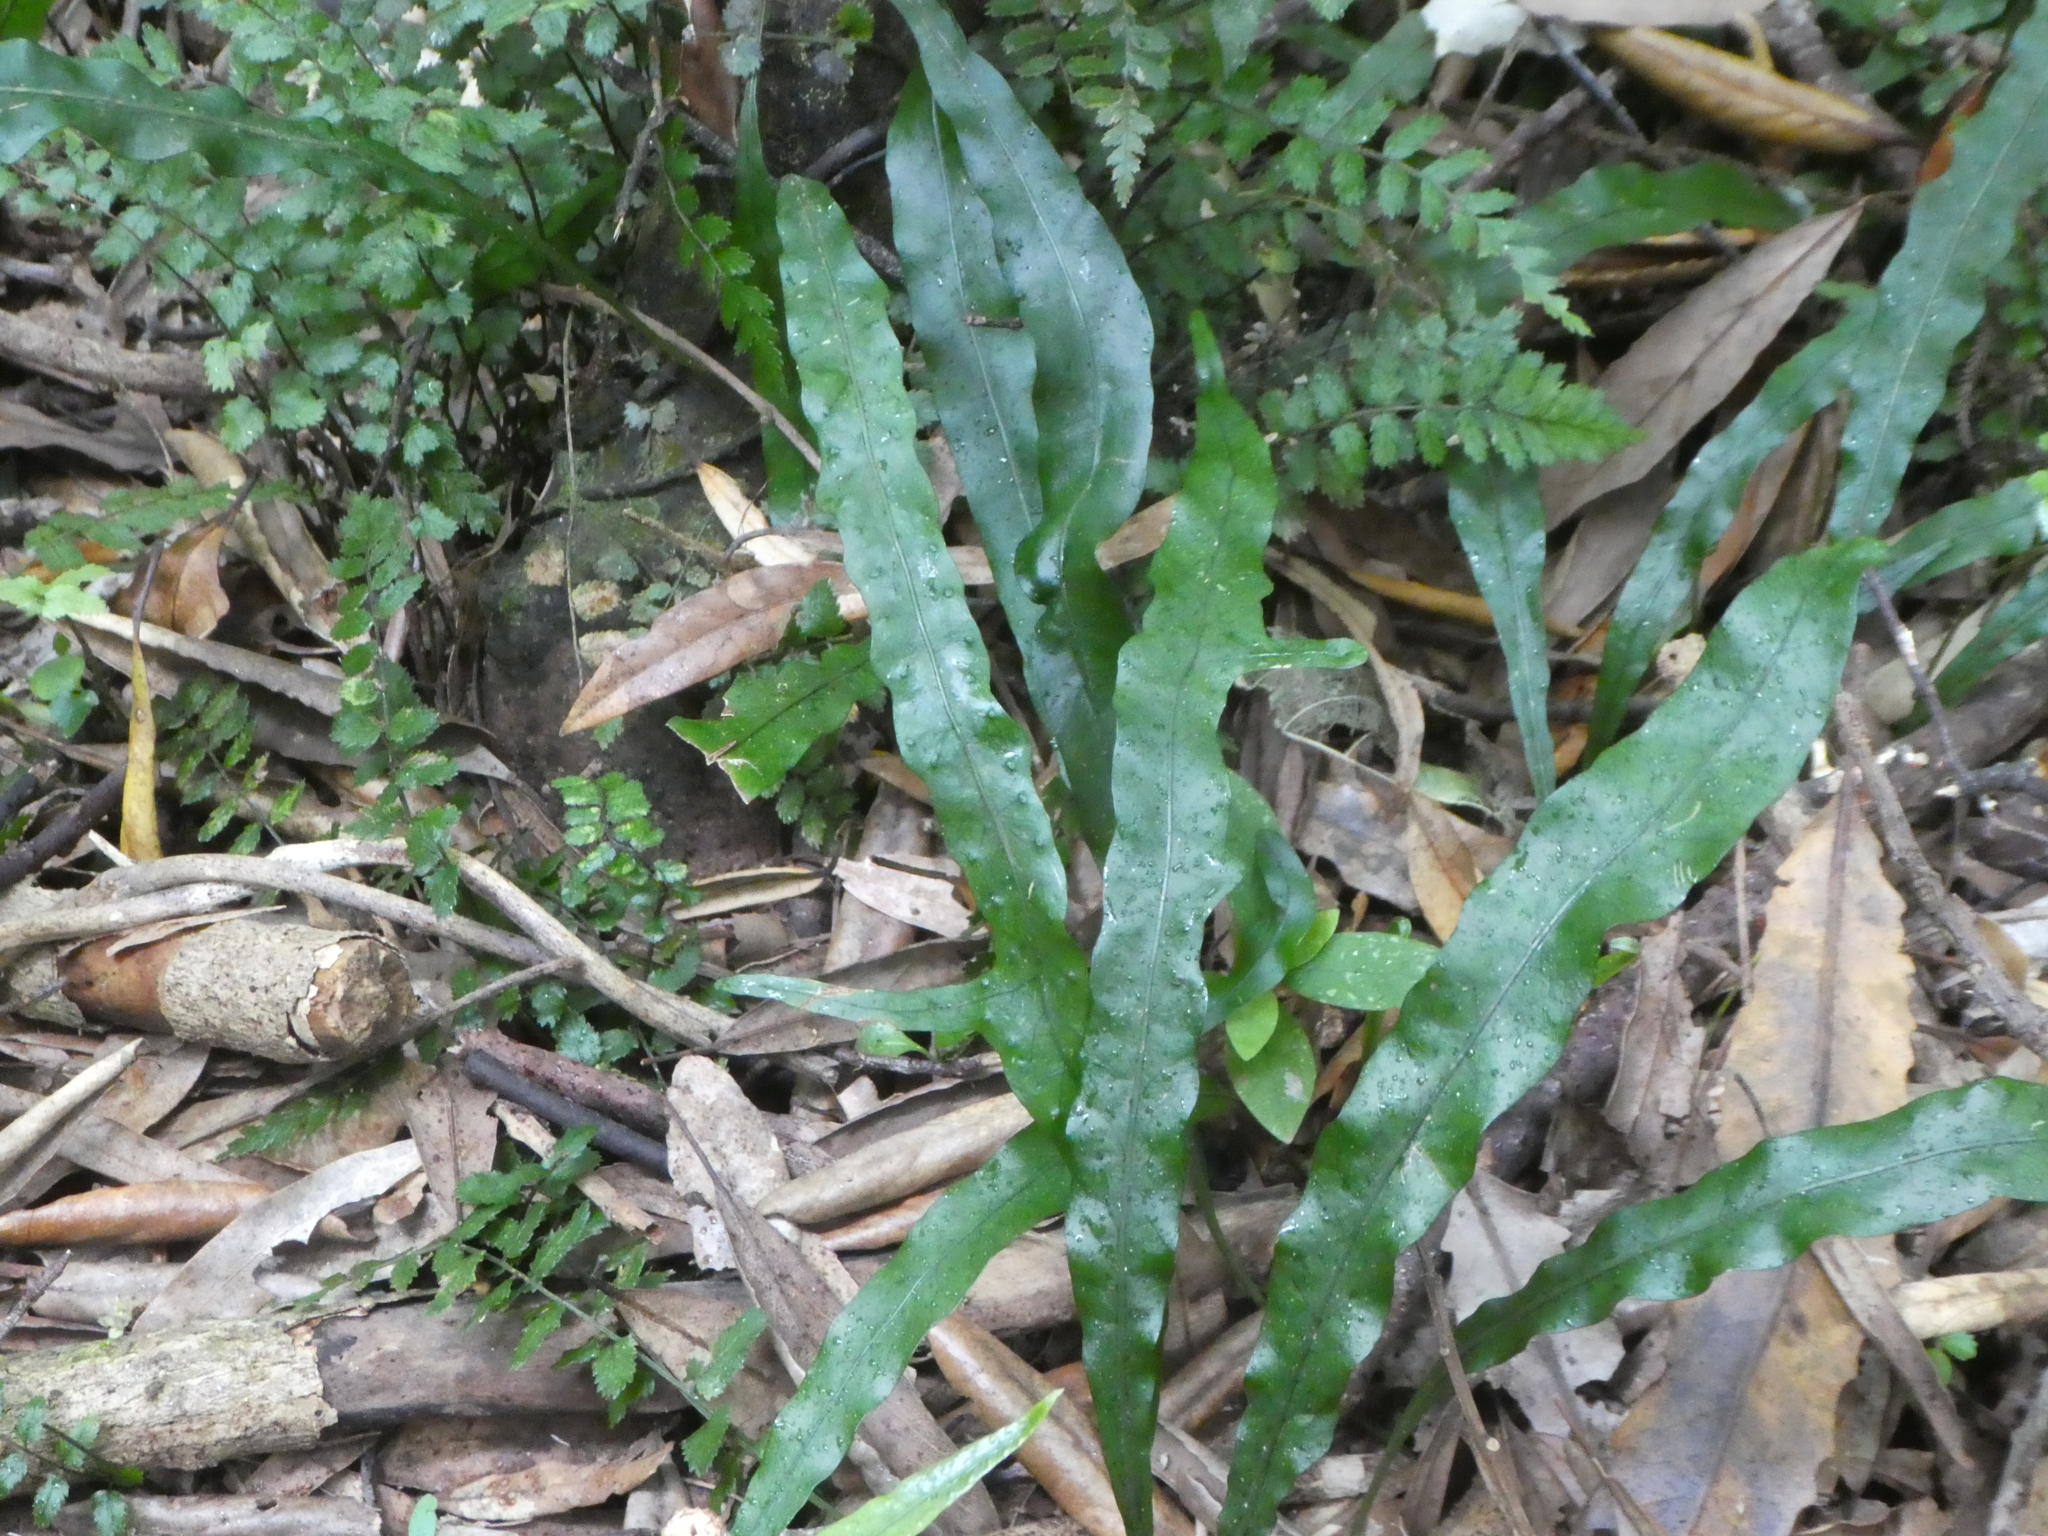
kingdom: Plantae
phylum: Tracheophyta
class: Polypodiopsida
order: Polypodiales
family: Polypodiaceae
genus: Lecanopteris
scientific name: Lecanopteris scandens
